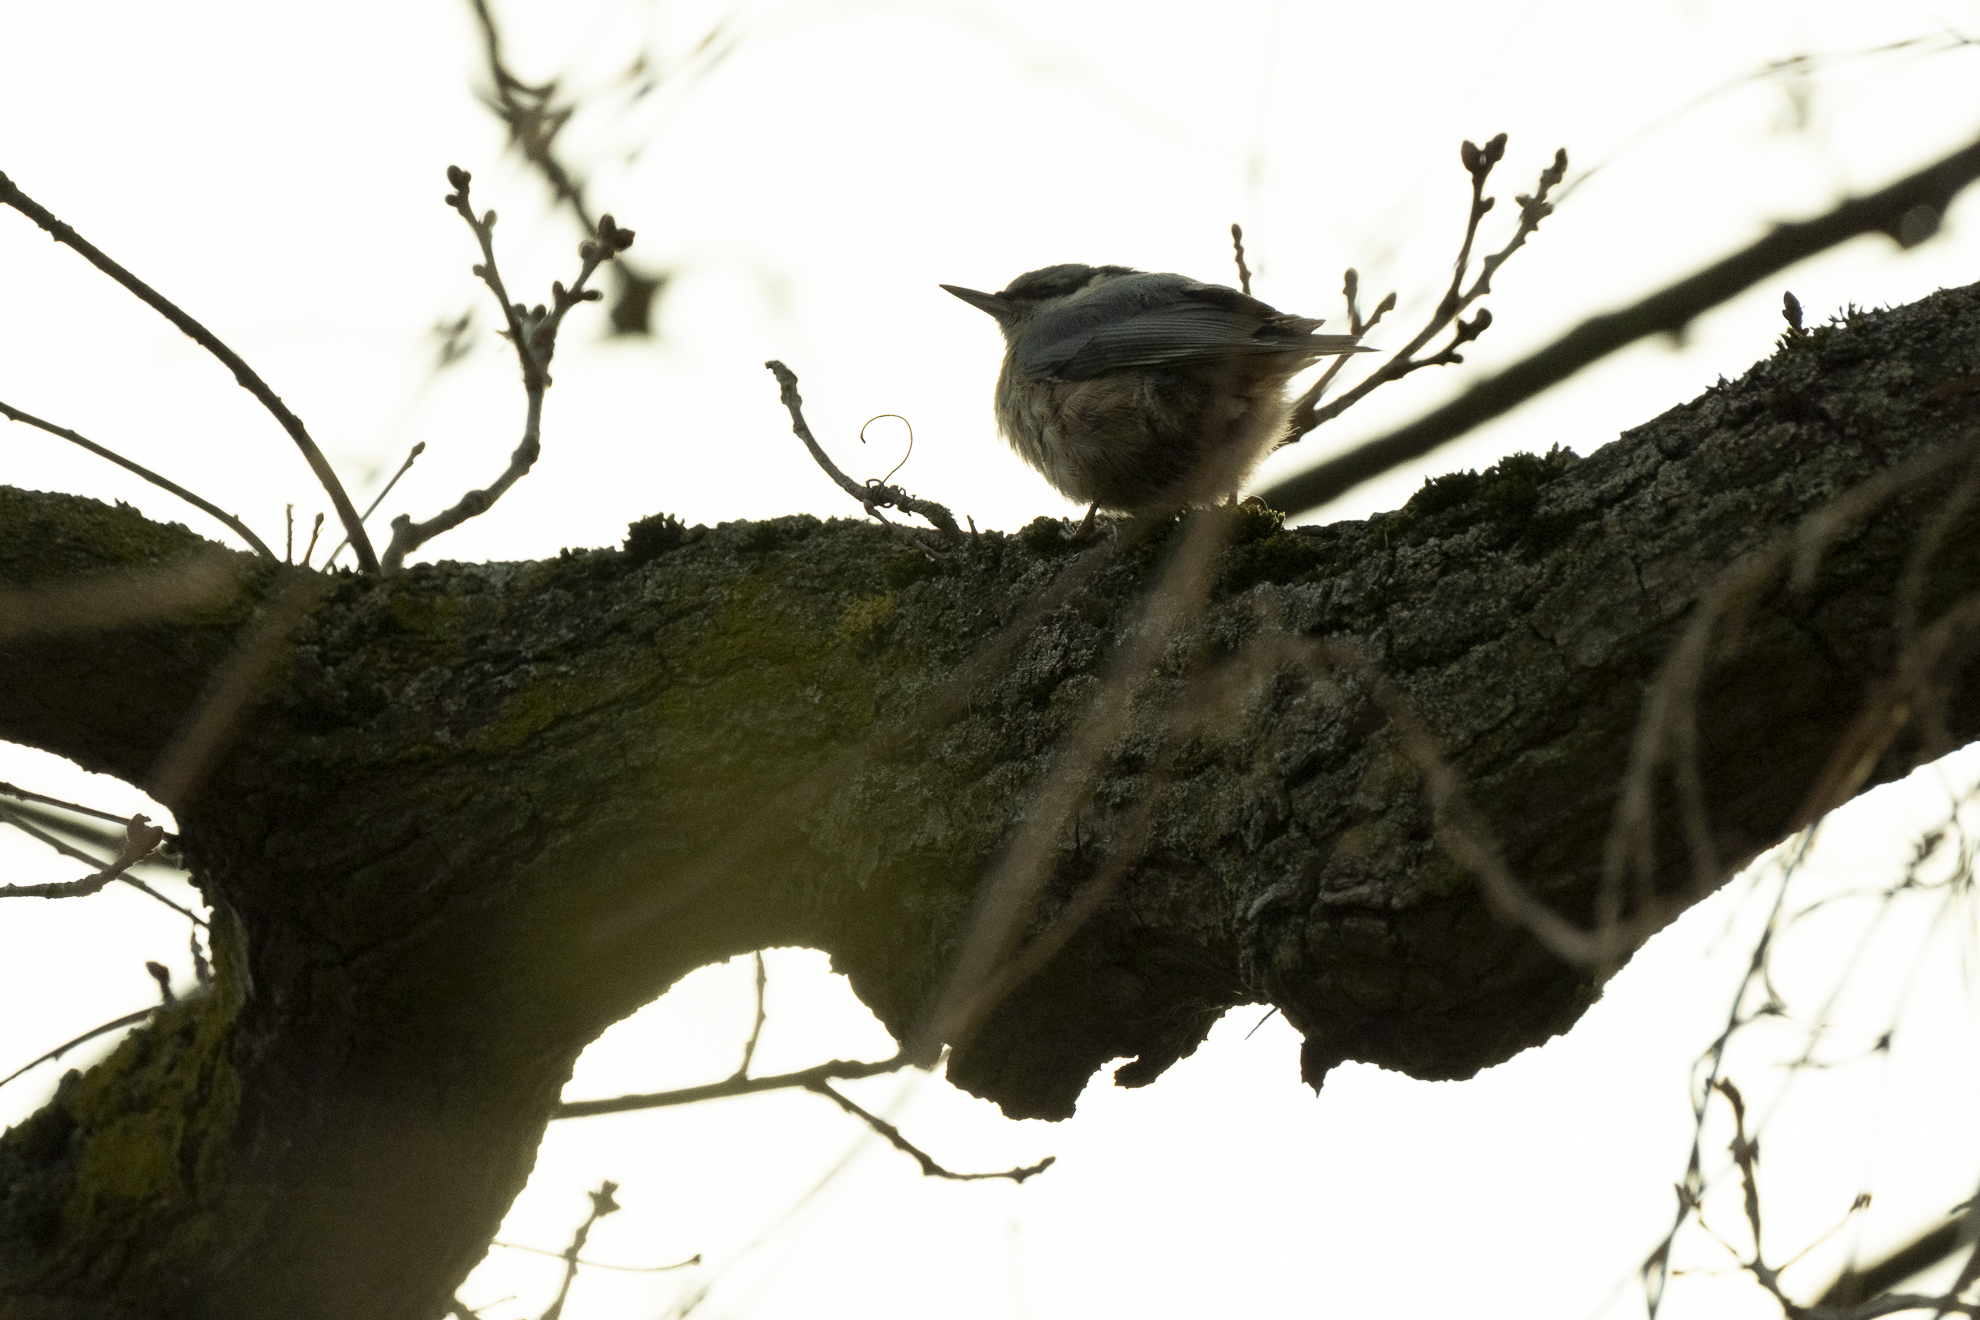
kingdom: Animalia
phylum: Chordata
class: Aves
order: Passeriformes
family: Sittidae
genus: Sitta
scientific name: Sitta europaea
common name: Eurasian nuthatch
